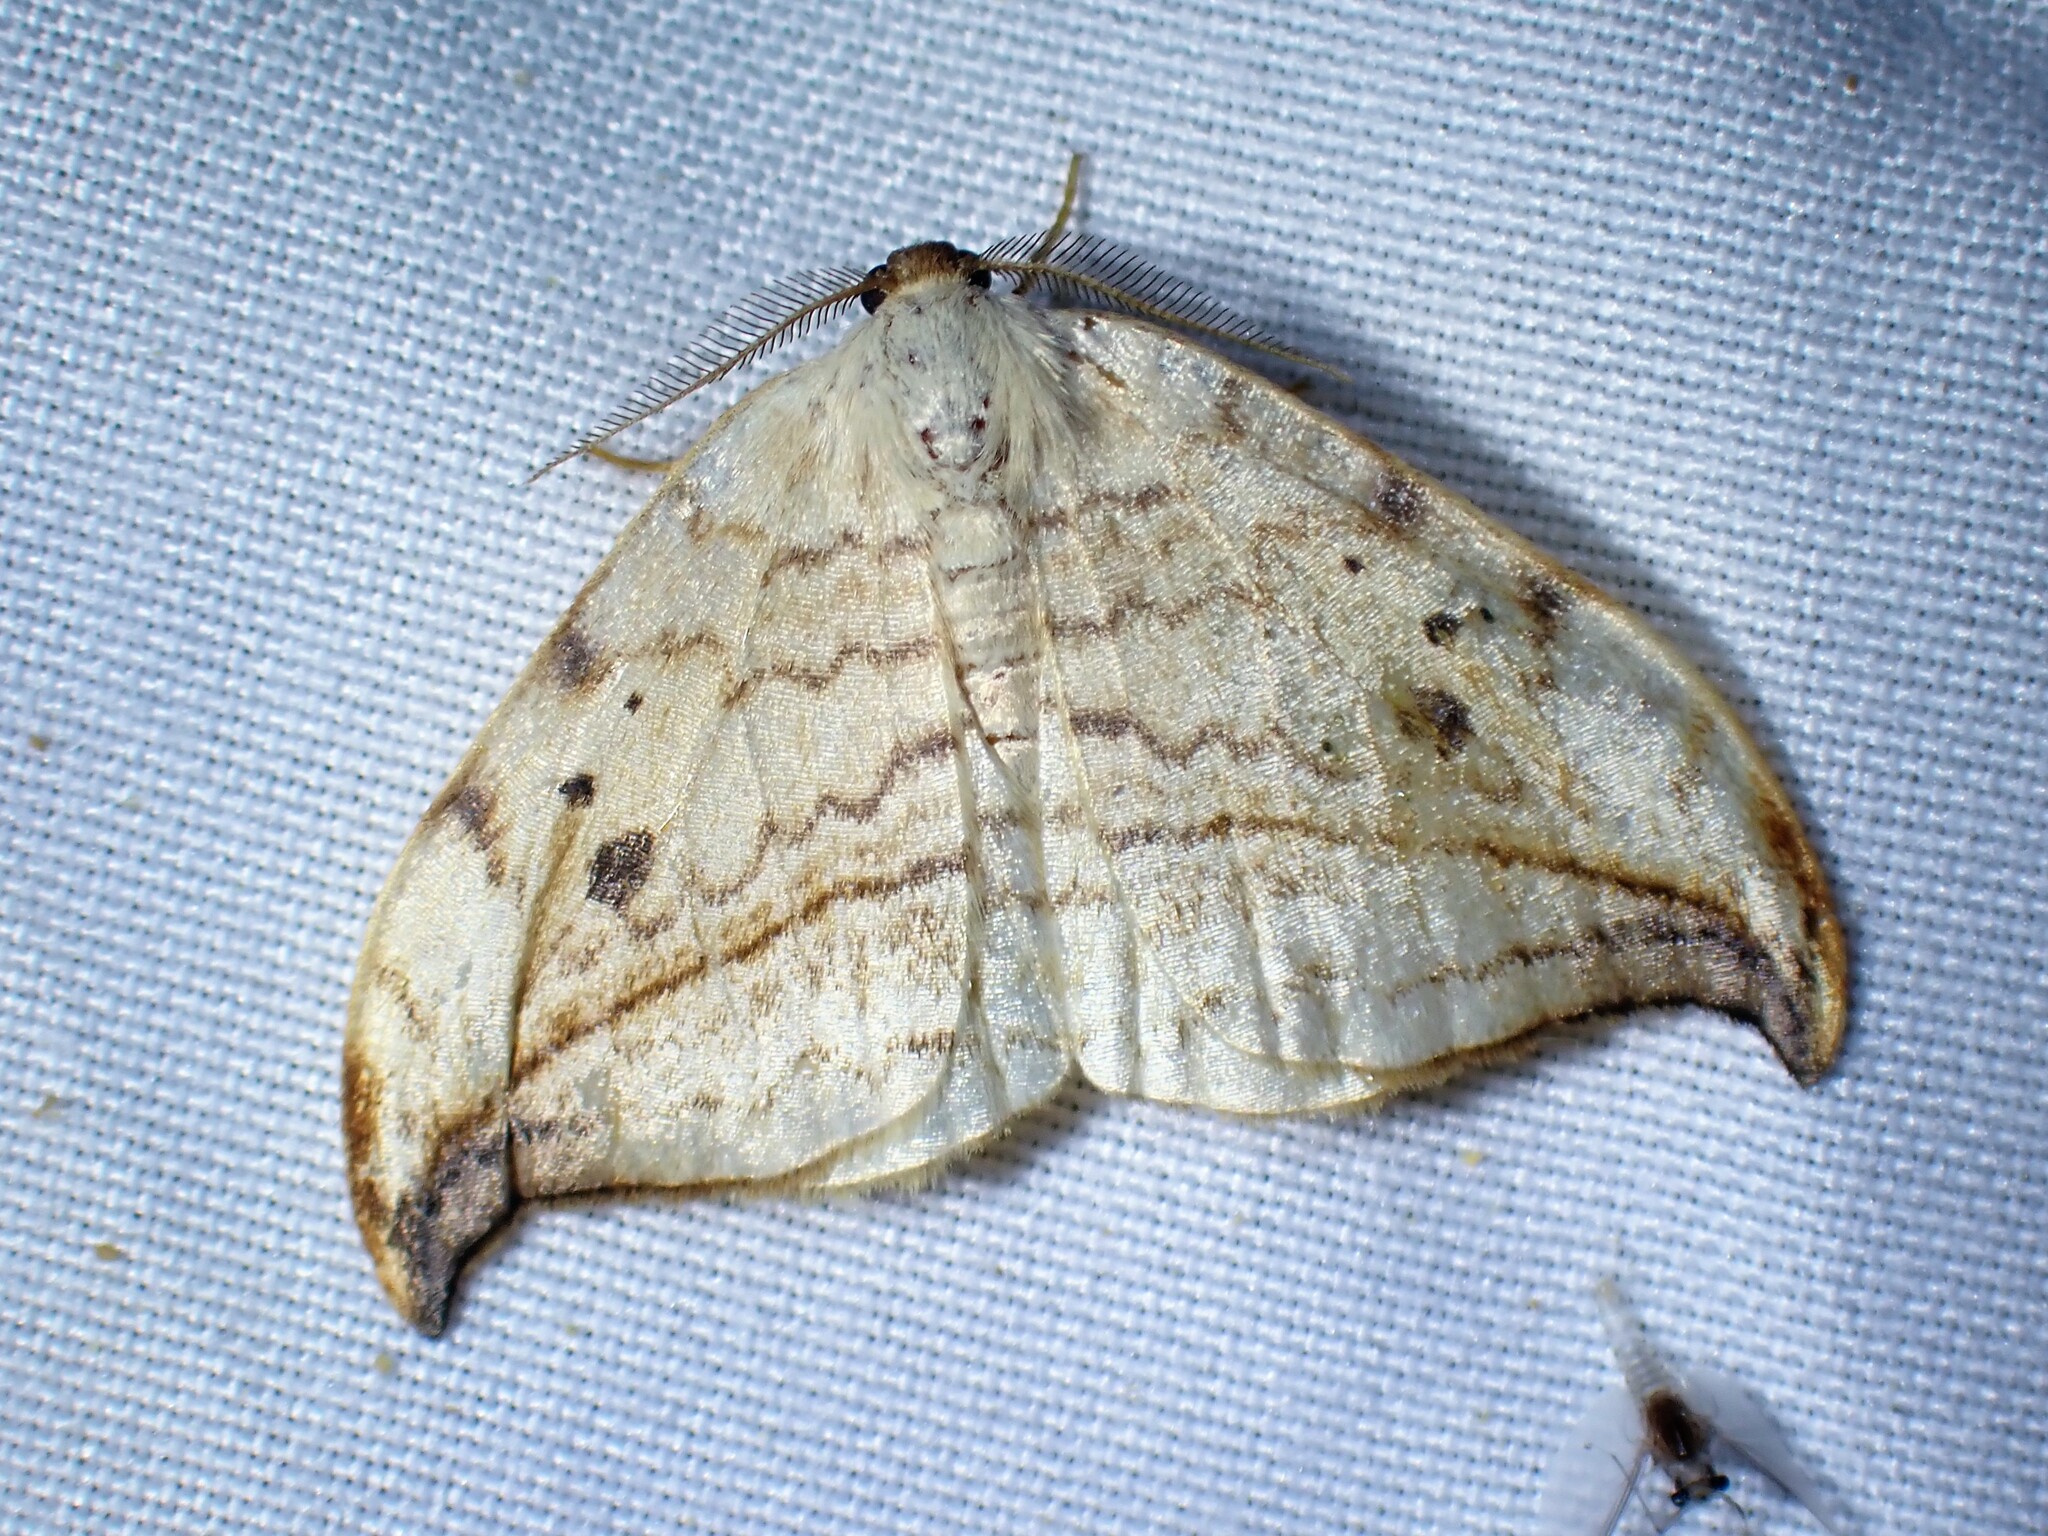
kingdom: Animalia
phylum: Arthropoda
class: Insecta
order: Lepidoptera
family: Drepanidae
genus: Drepana
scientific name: Drepana arcuata
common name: Arched hooktip moth
